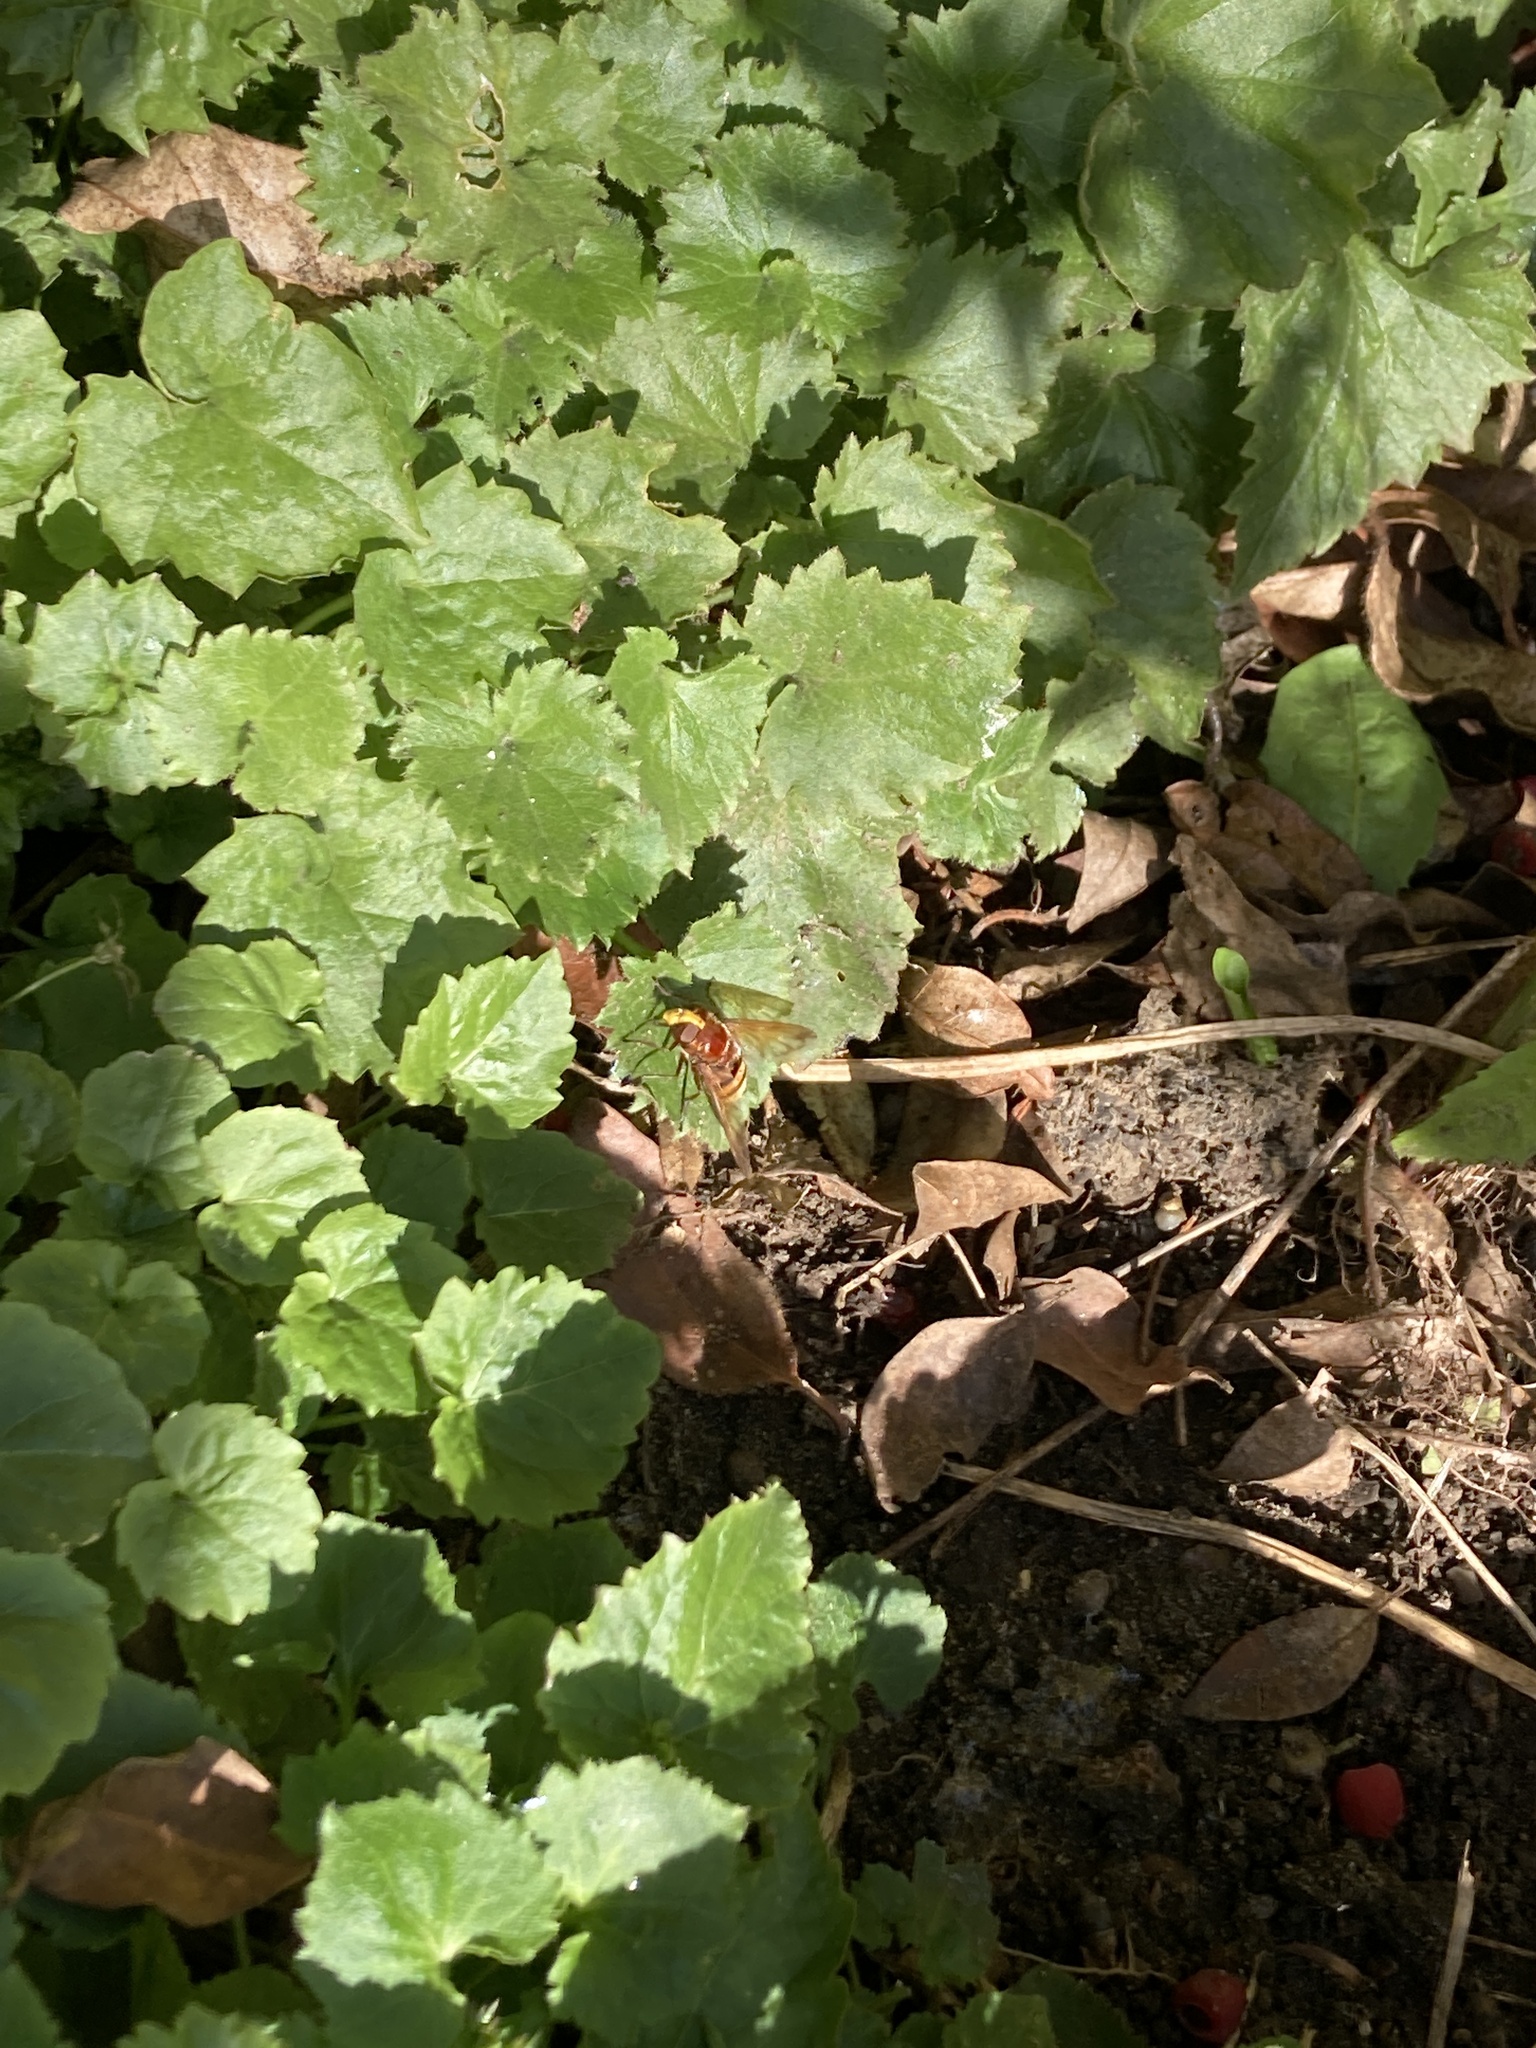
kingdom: Animalia
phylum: Arthropoda
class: Insecta
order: Diptera
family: Syrphidae
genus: Volucella
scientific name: Volucella zonaria
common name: Hornet hoverfly
